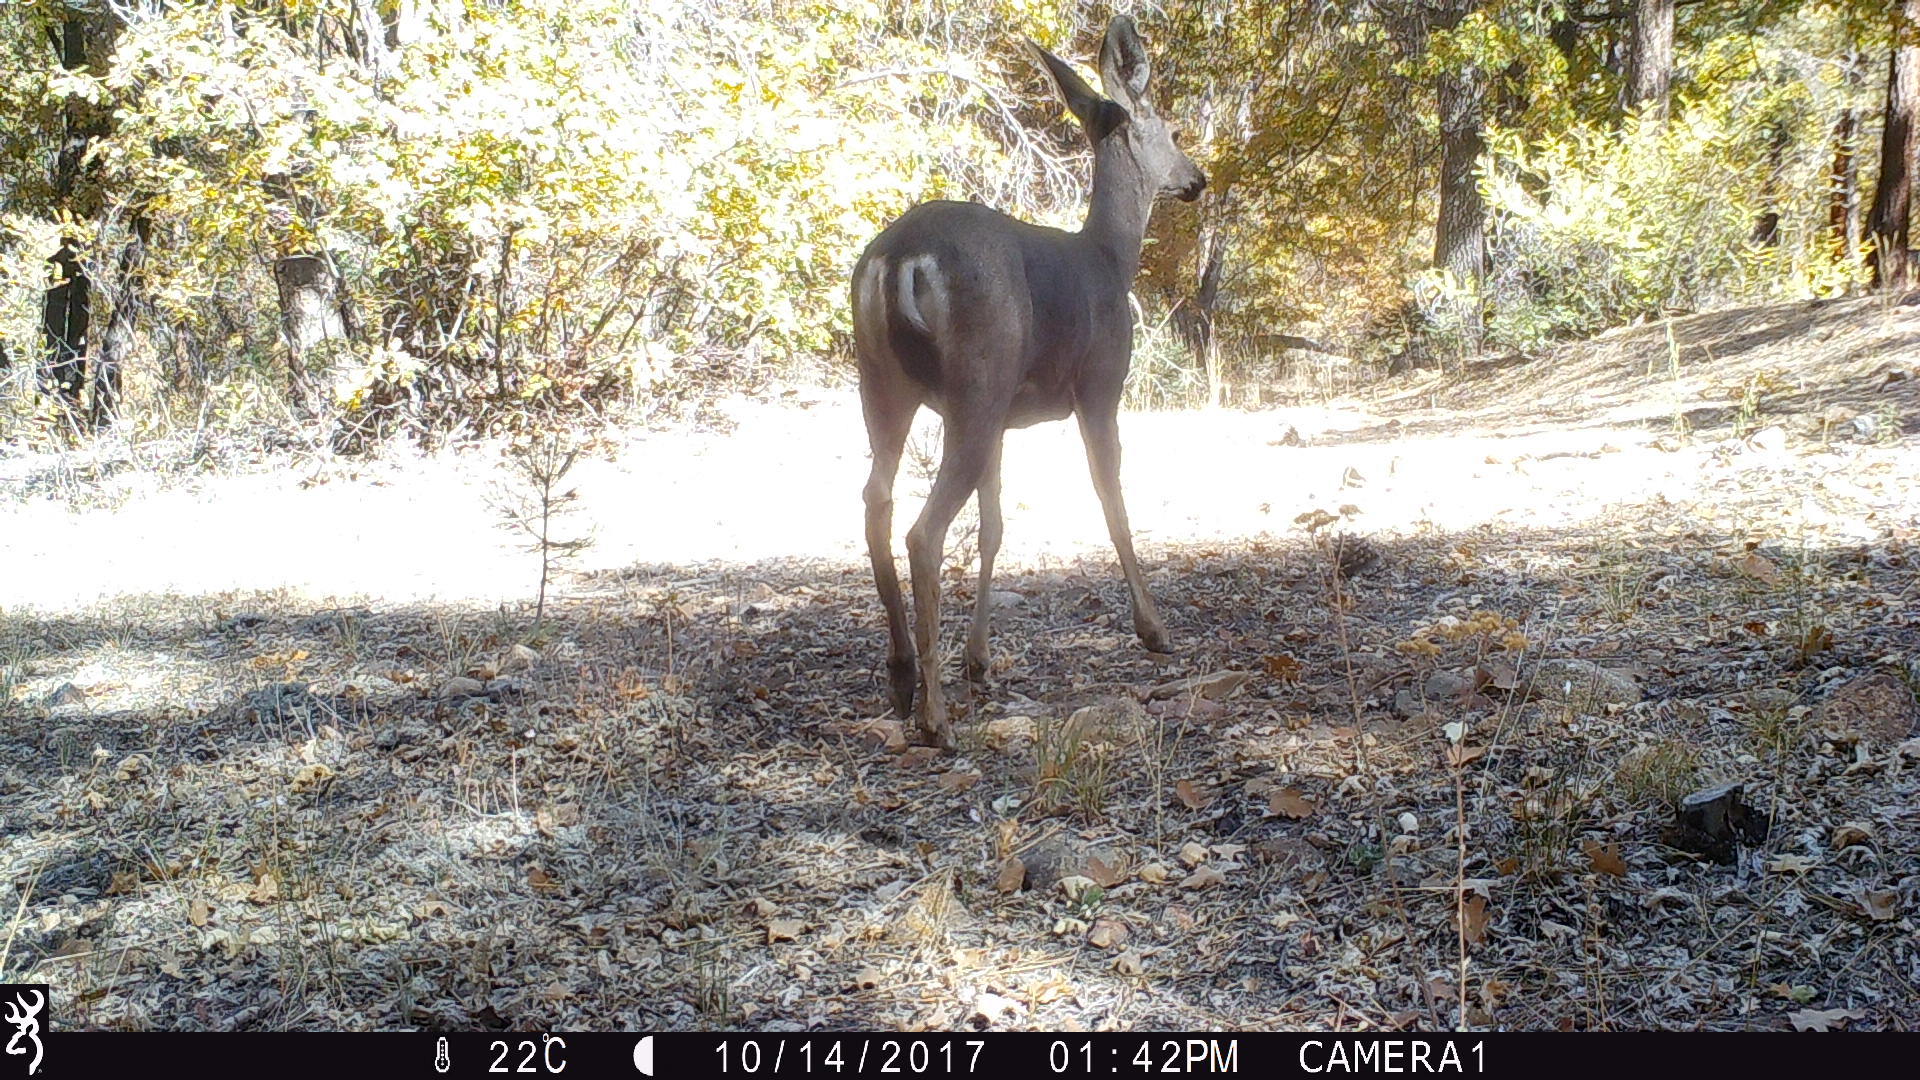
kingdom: Animalia
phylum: Chordata
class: Mammalia
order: Artiodactyla
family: Cervidae
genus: Odocoileus
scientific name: Odocoileus hemionus
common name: Mule deer
